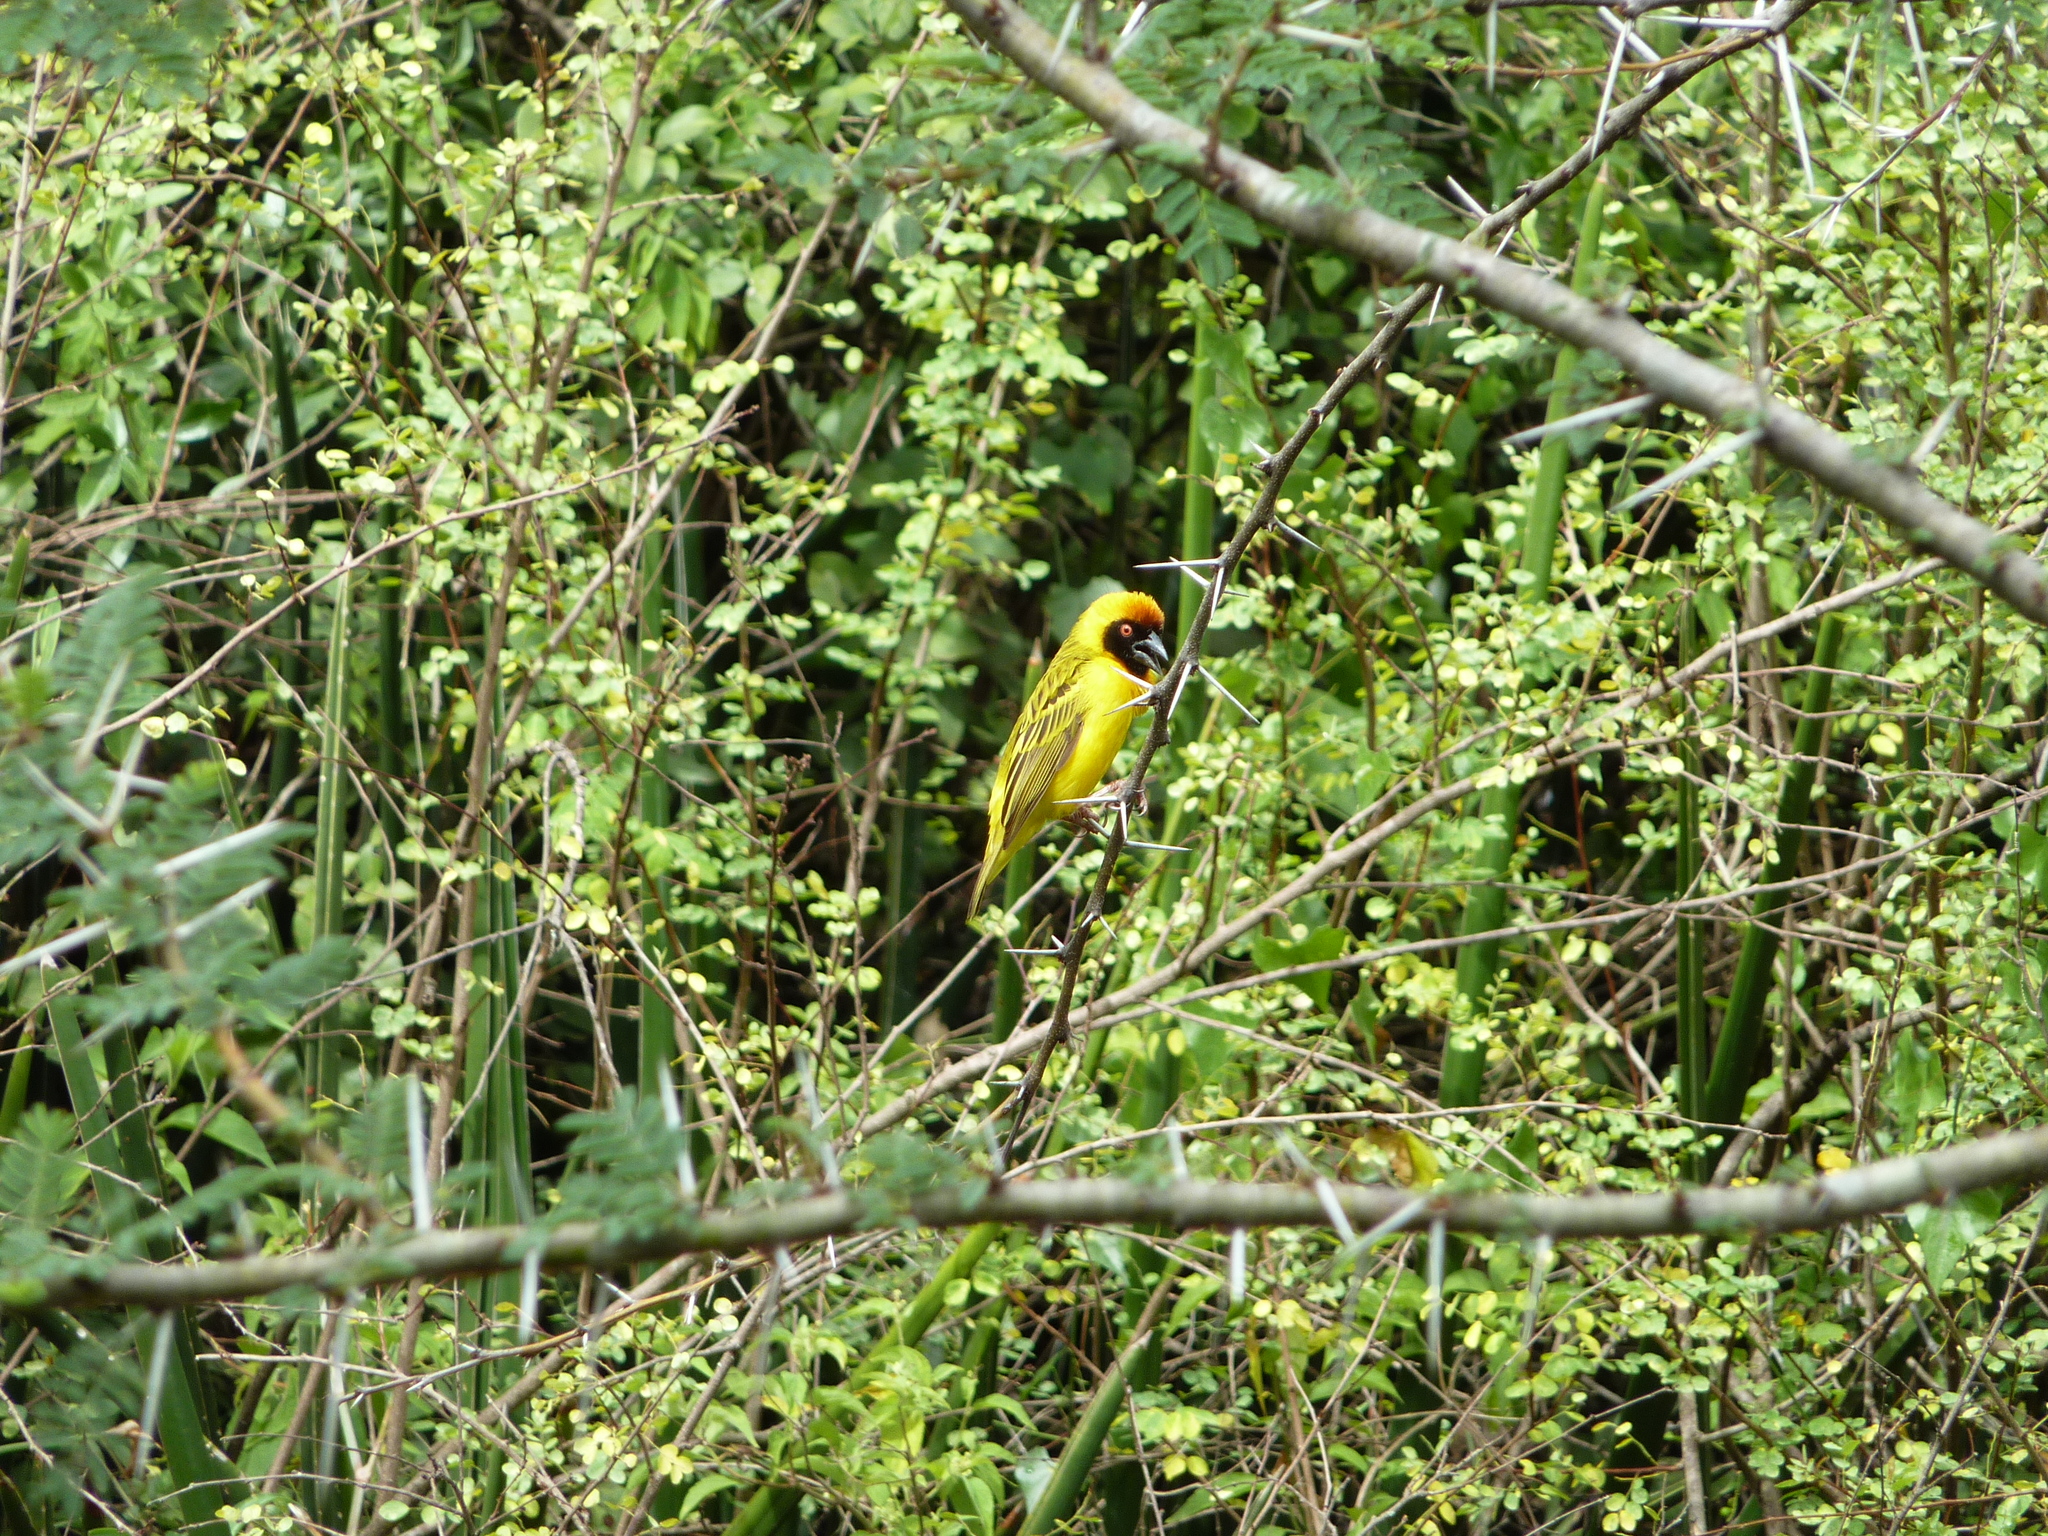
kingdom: Animalia
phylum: Chordata
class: Aves
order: Passeriformes
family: Ploceidae
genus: Ploceus
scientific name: Ploceus vitellinus
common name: Vitelline masked weaver
